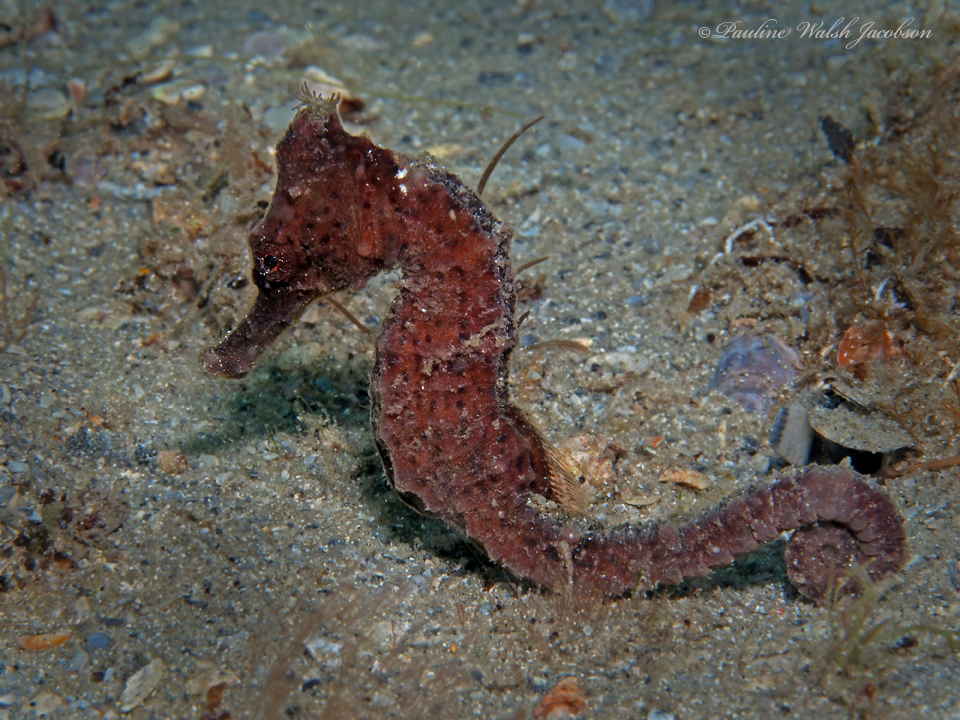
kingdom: Animalia
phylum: Chordata
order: Syngnathiformes
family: Syngnathidae
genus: Hippocampus
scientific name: Hippocampus reidi
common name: Slender seahorse
